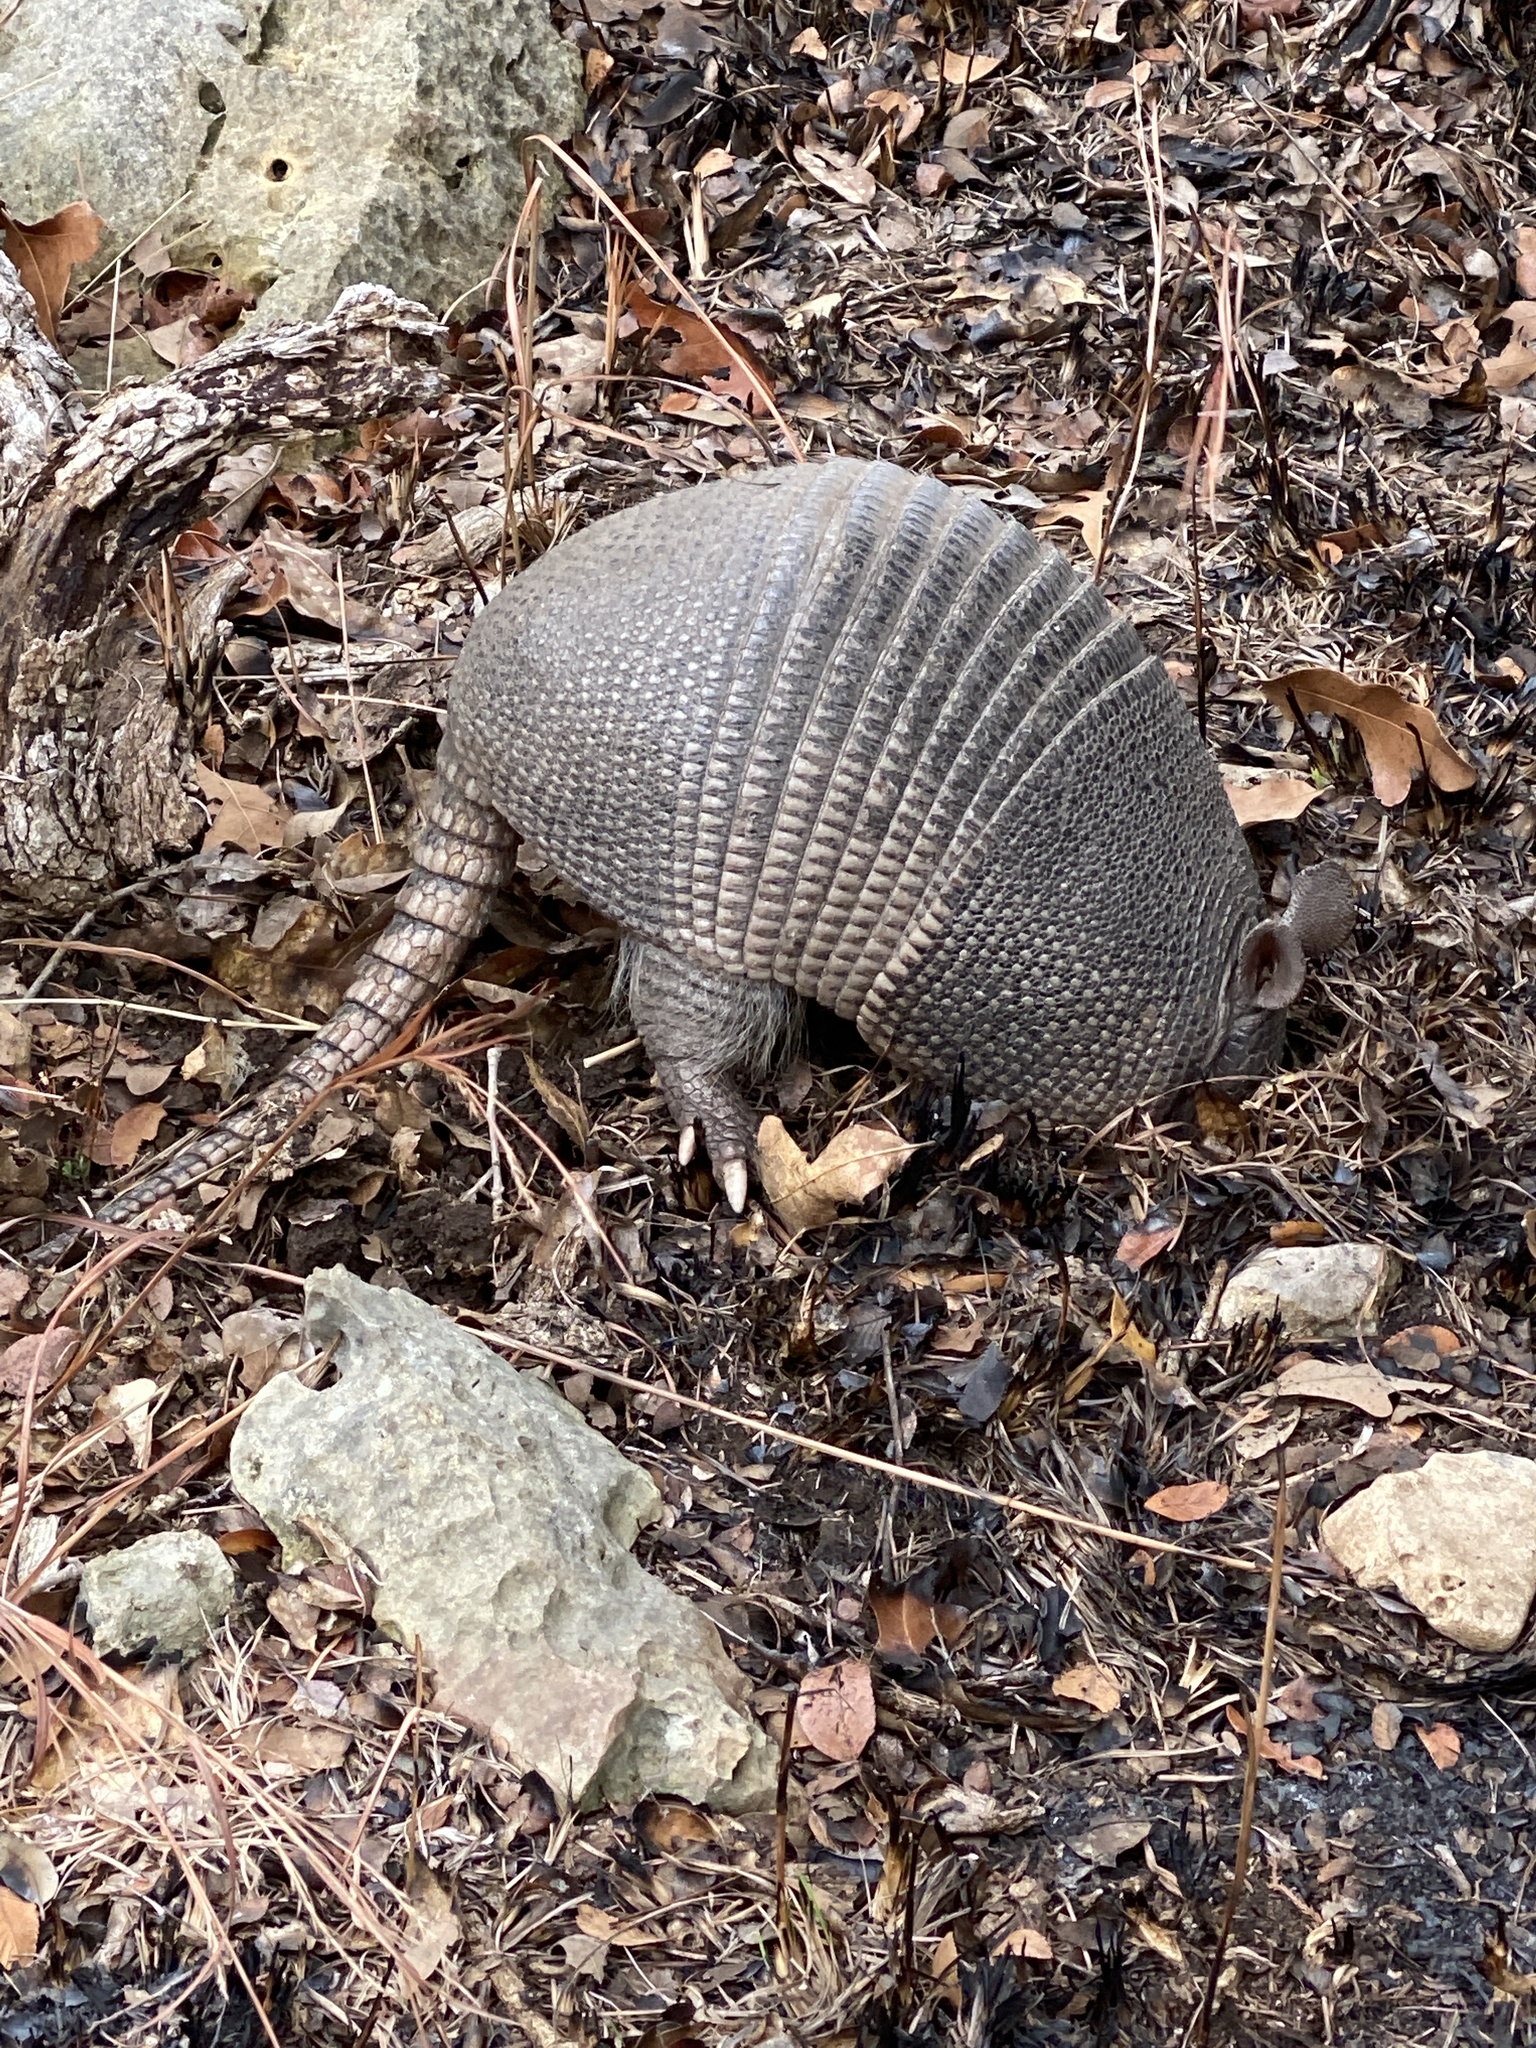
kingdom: Animalia
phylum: Chordata
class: Mammalia
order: Cingulata
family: Dasypodidae
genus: Dasypus
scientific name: Dasypus novemcinctus
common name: Nine-banded armadillo
